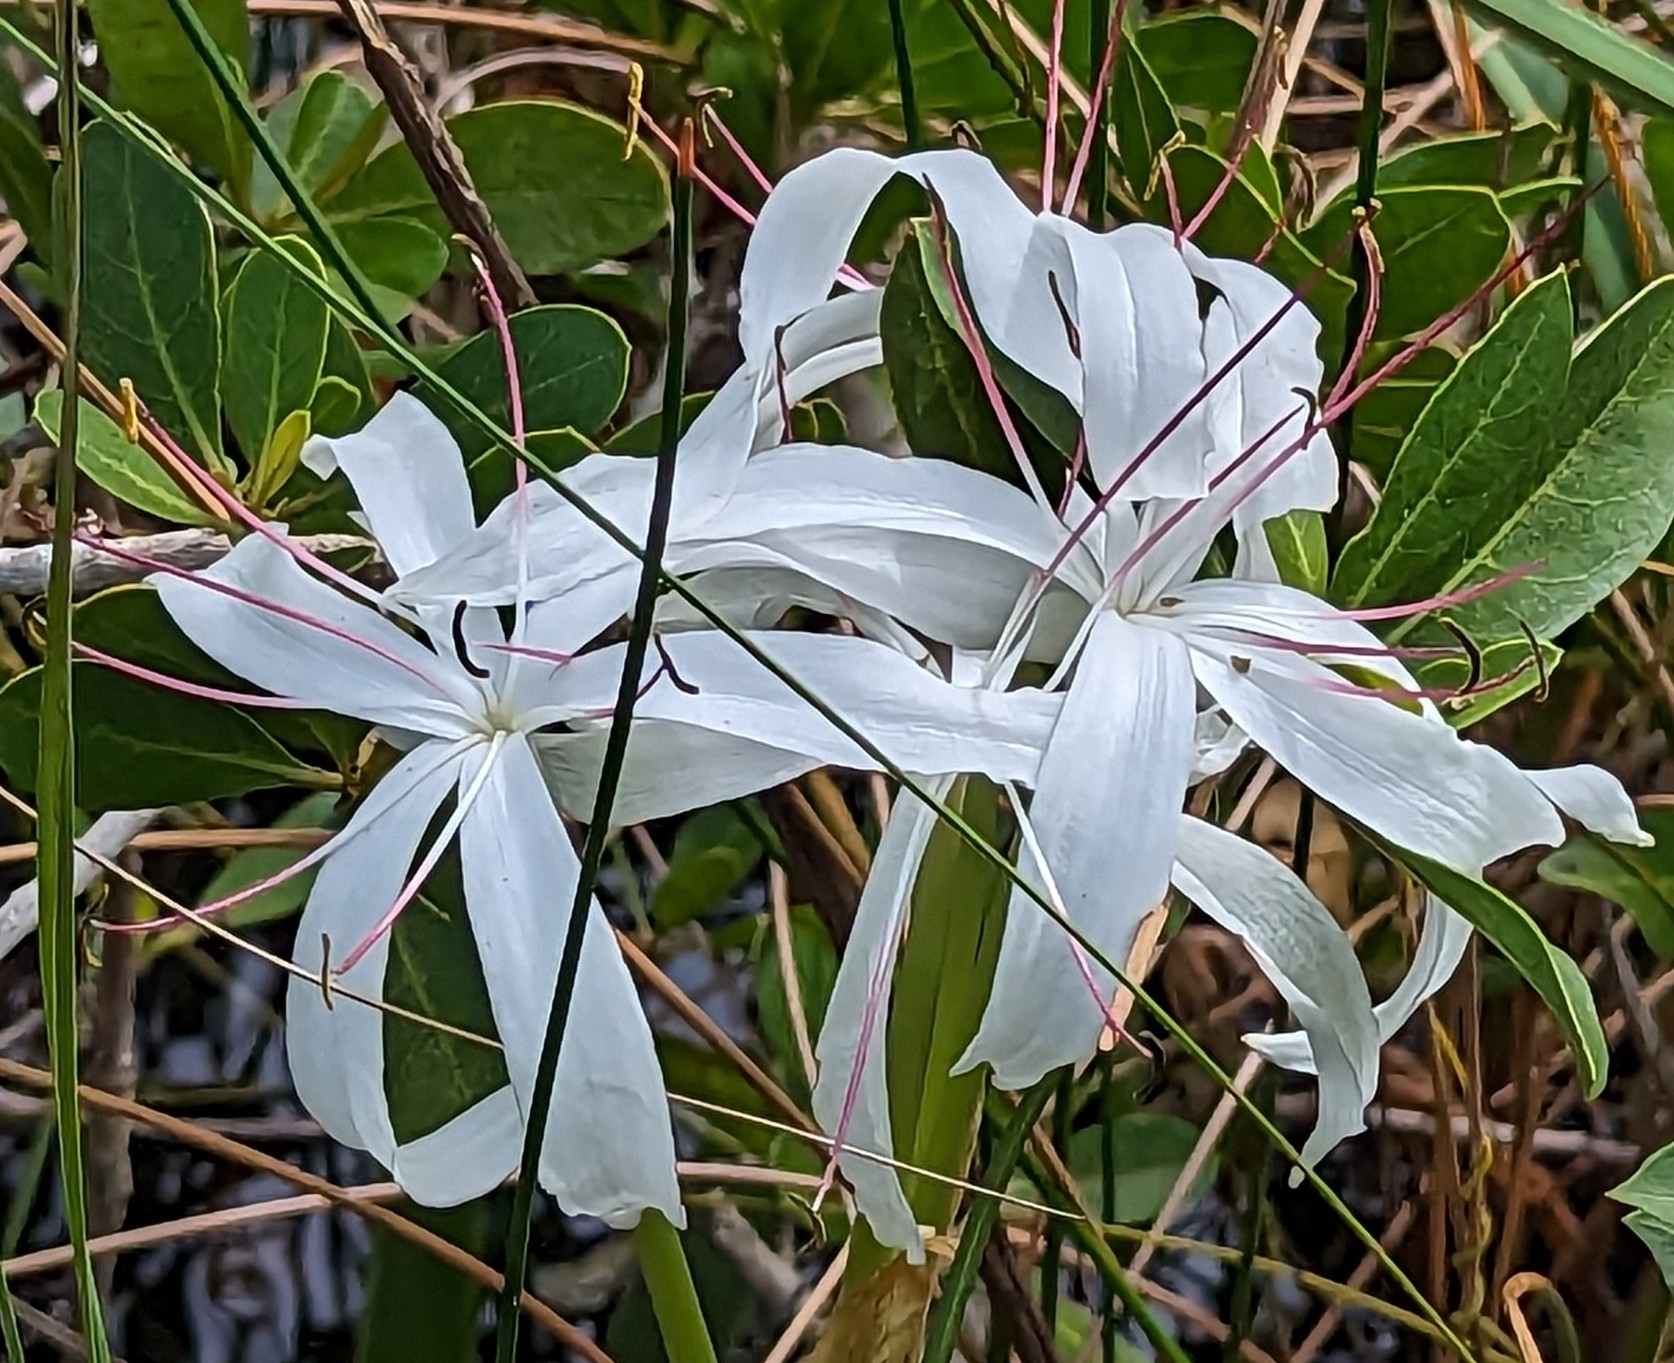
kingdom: Plantae
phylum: Tracheophyta
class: Liliopsida
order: Asparagales
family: Amaryllidaceae
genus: Crinum
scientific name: Crinum americanum
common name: Florida swamp-lily
